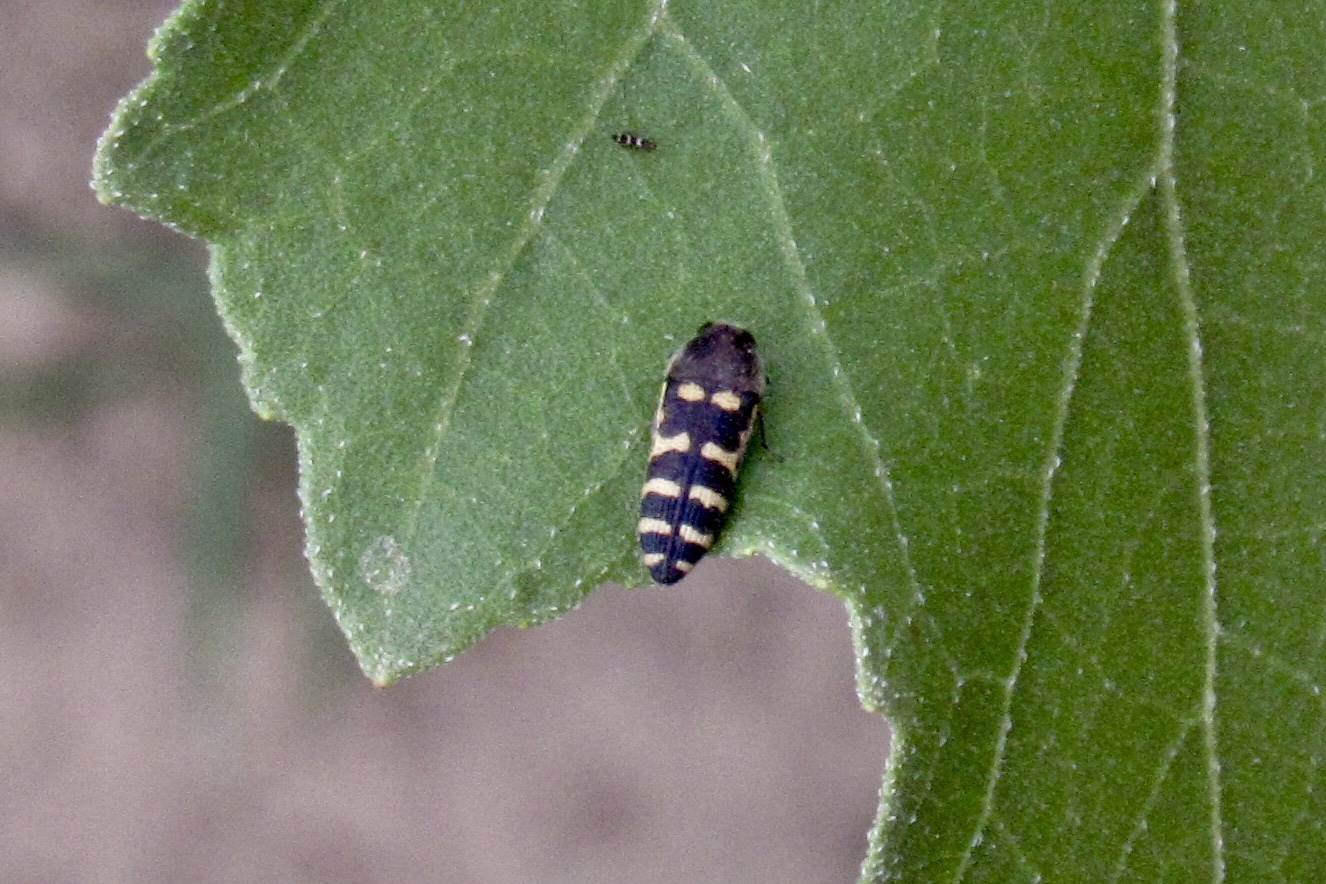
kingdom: Animalia
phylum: Arthropoda
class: Insecta
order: Coleoptera
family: Buprestidae
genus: Acmaeodera
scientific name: Acmaeodera alicia
